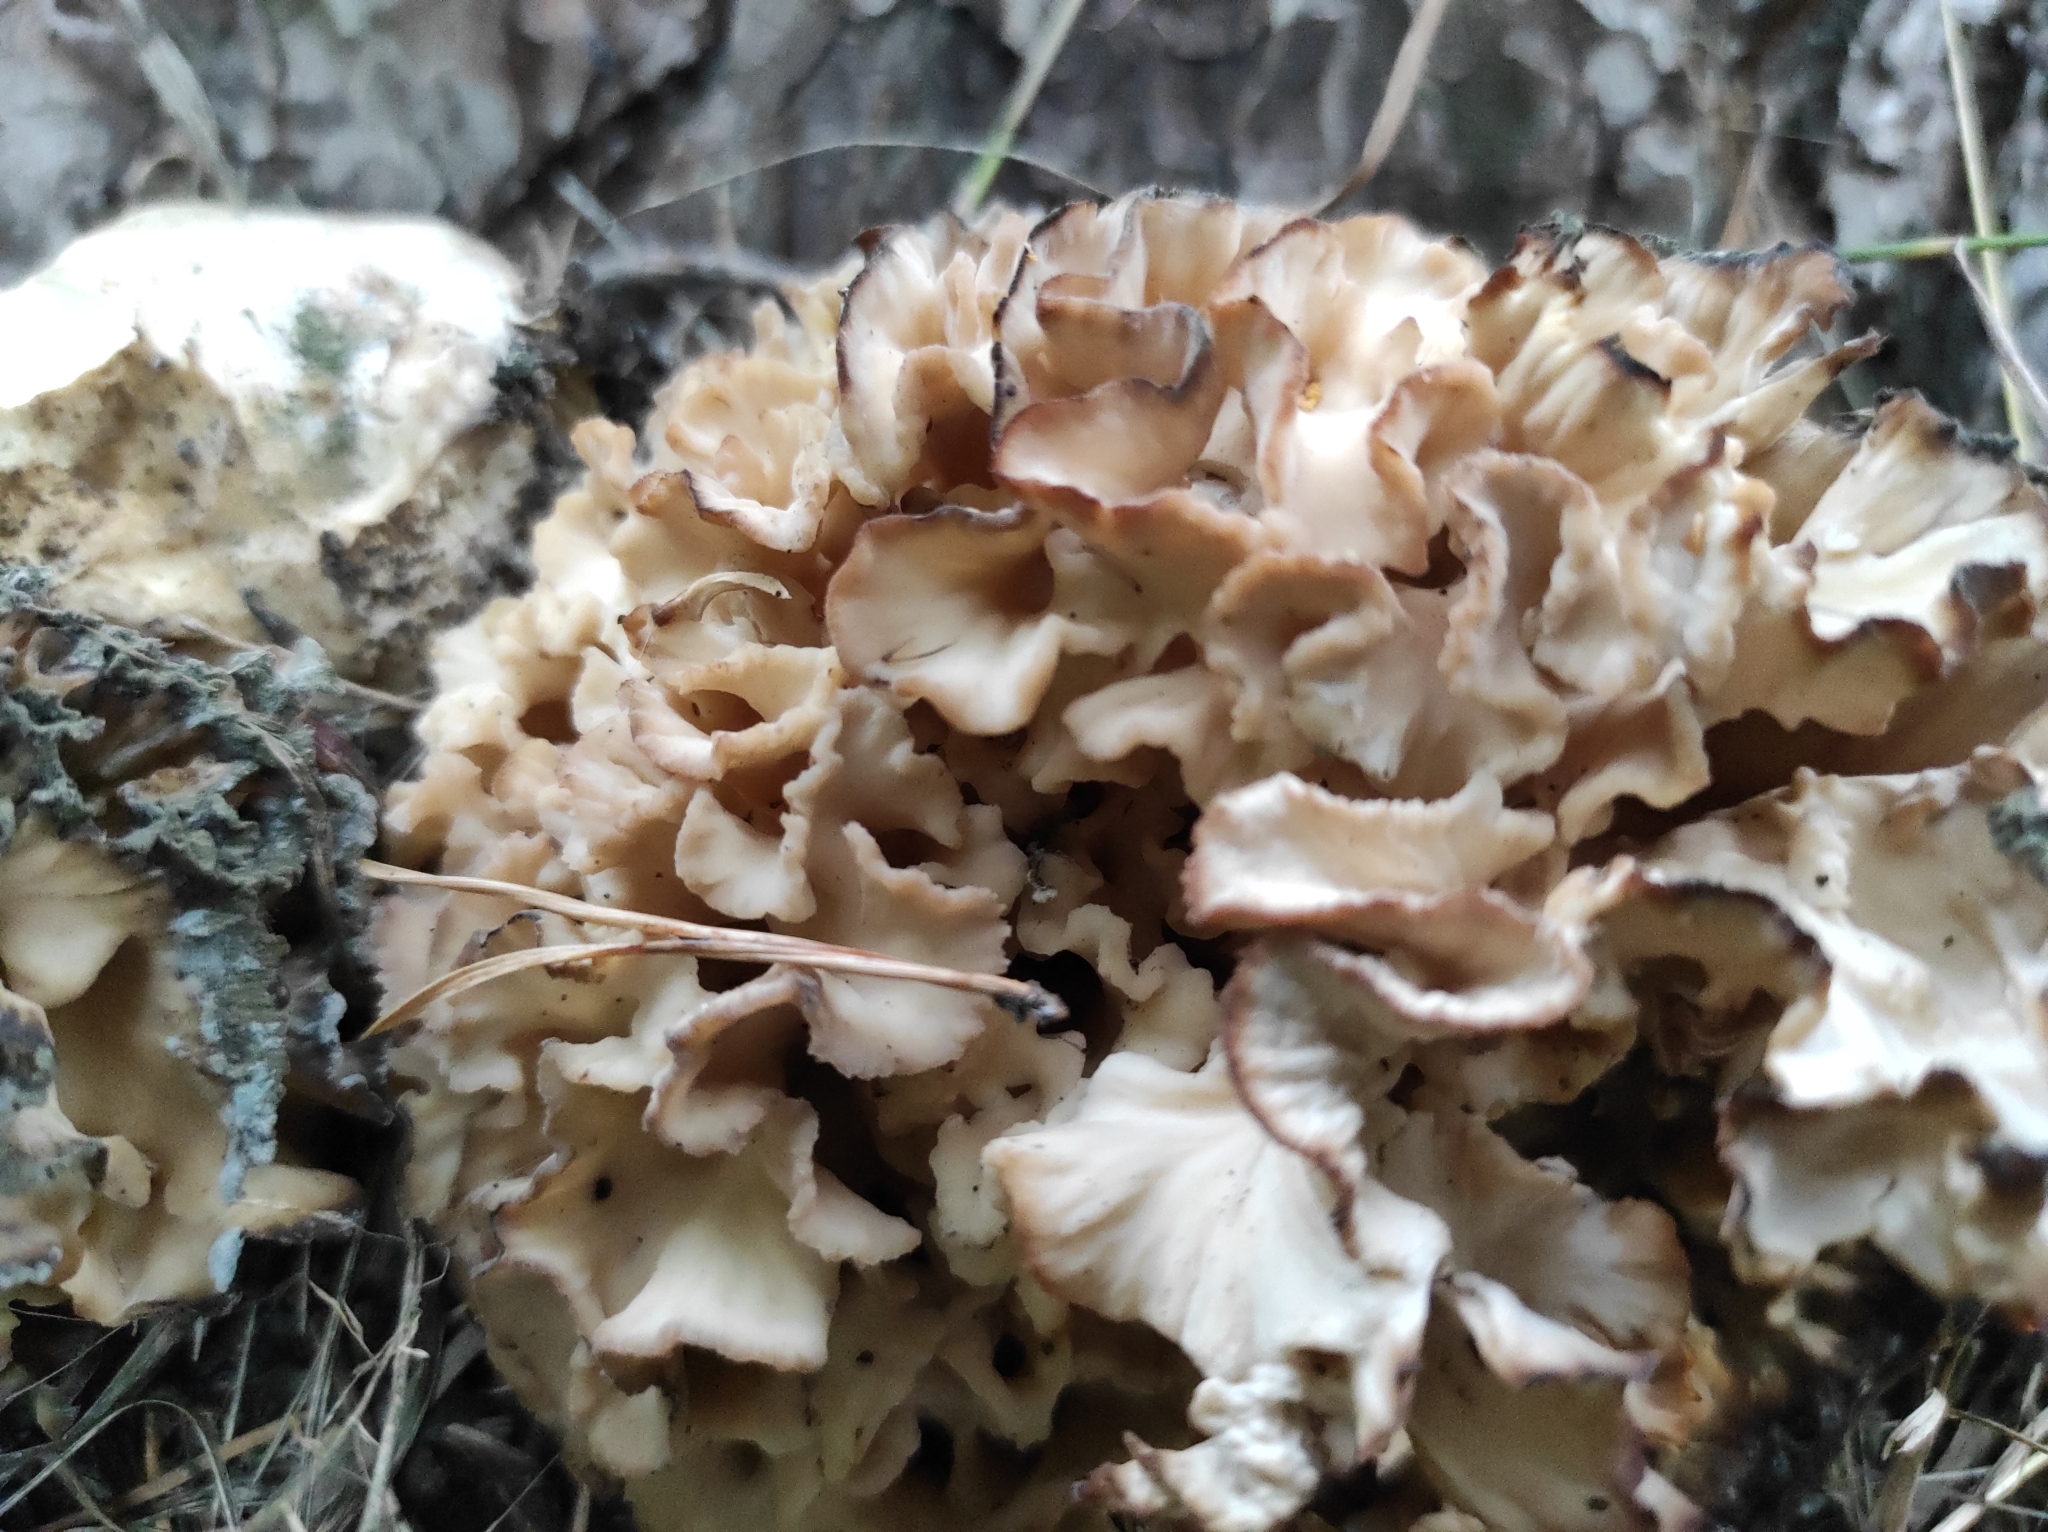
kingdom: Fungi
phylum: Basidiomycota
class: Agaricomycetes
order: Polyporales
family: Sparassidaceae
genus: Sparassis
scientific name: Sparassis crispa
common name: Brain fungus
